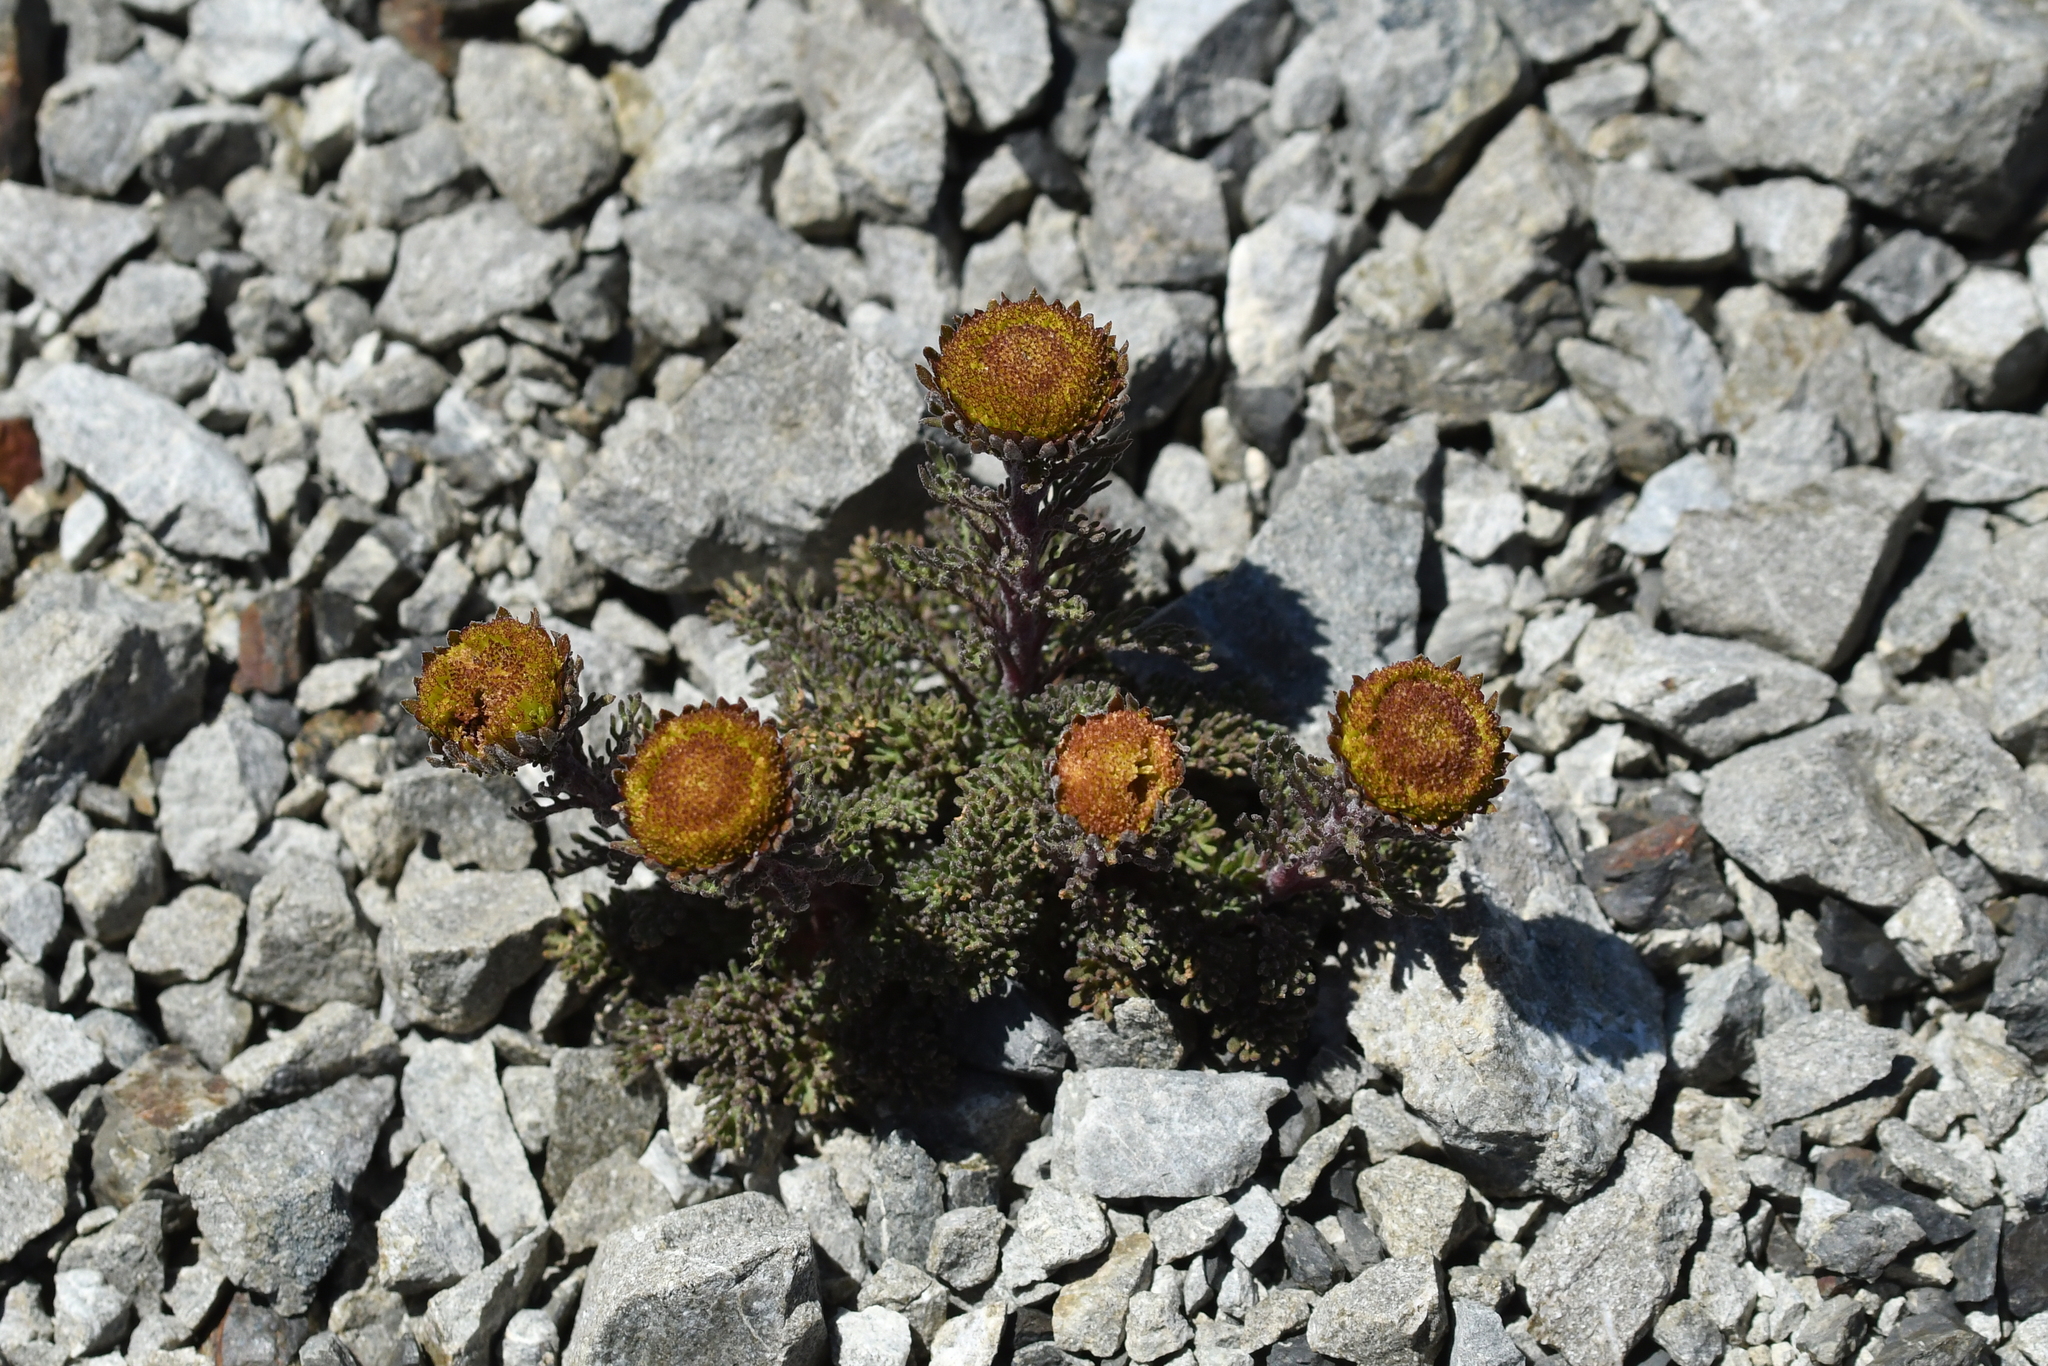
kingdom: Plantae
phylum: Tracheophyta
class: Magnoliopsida
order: Asterales
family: Asteraceae
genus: Leptinella
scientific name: Leptinella dendyi
